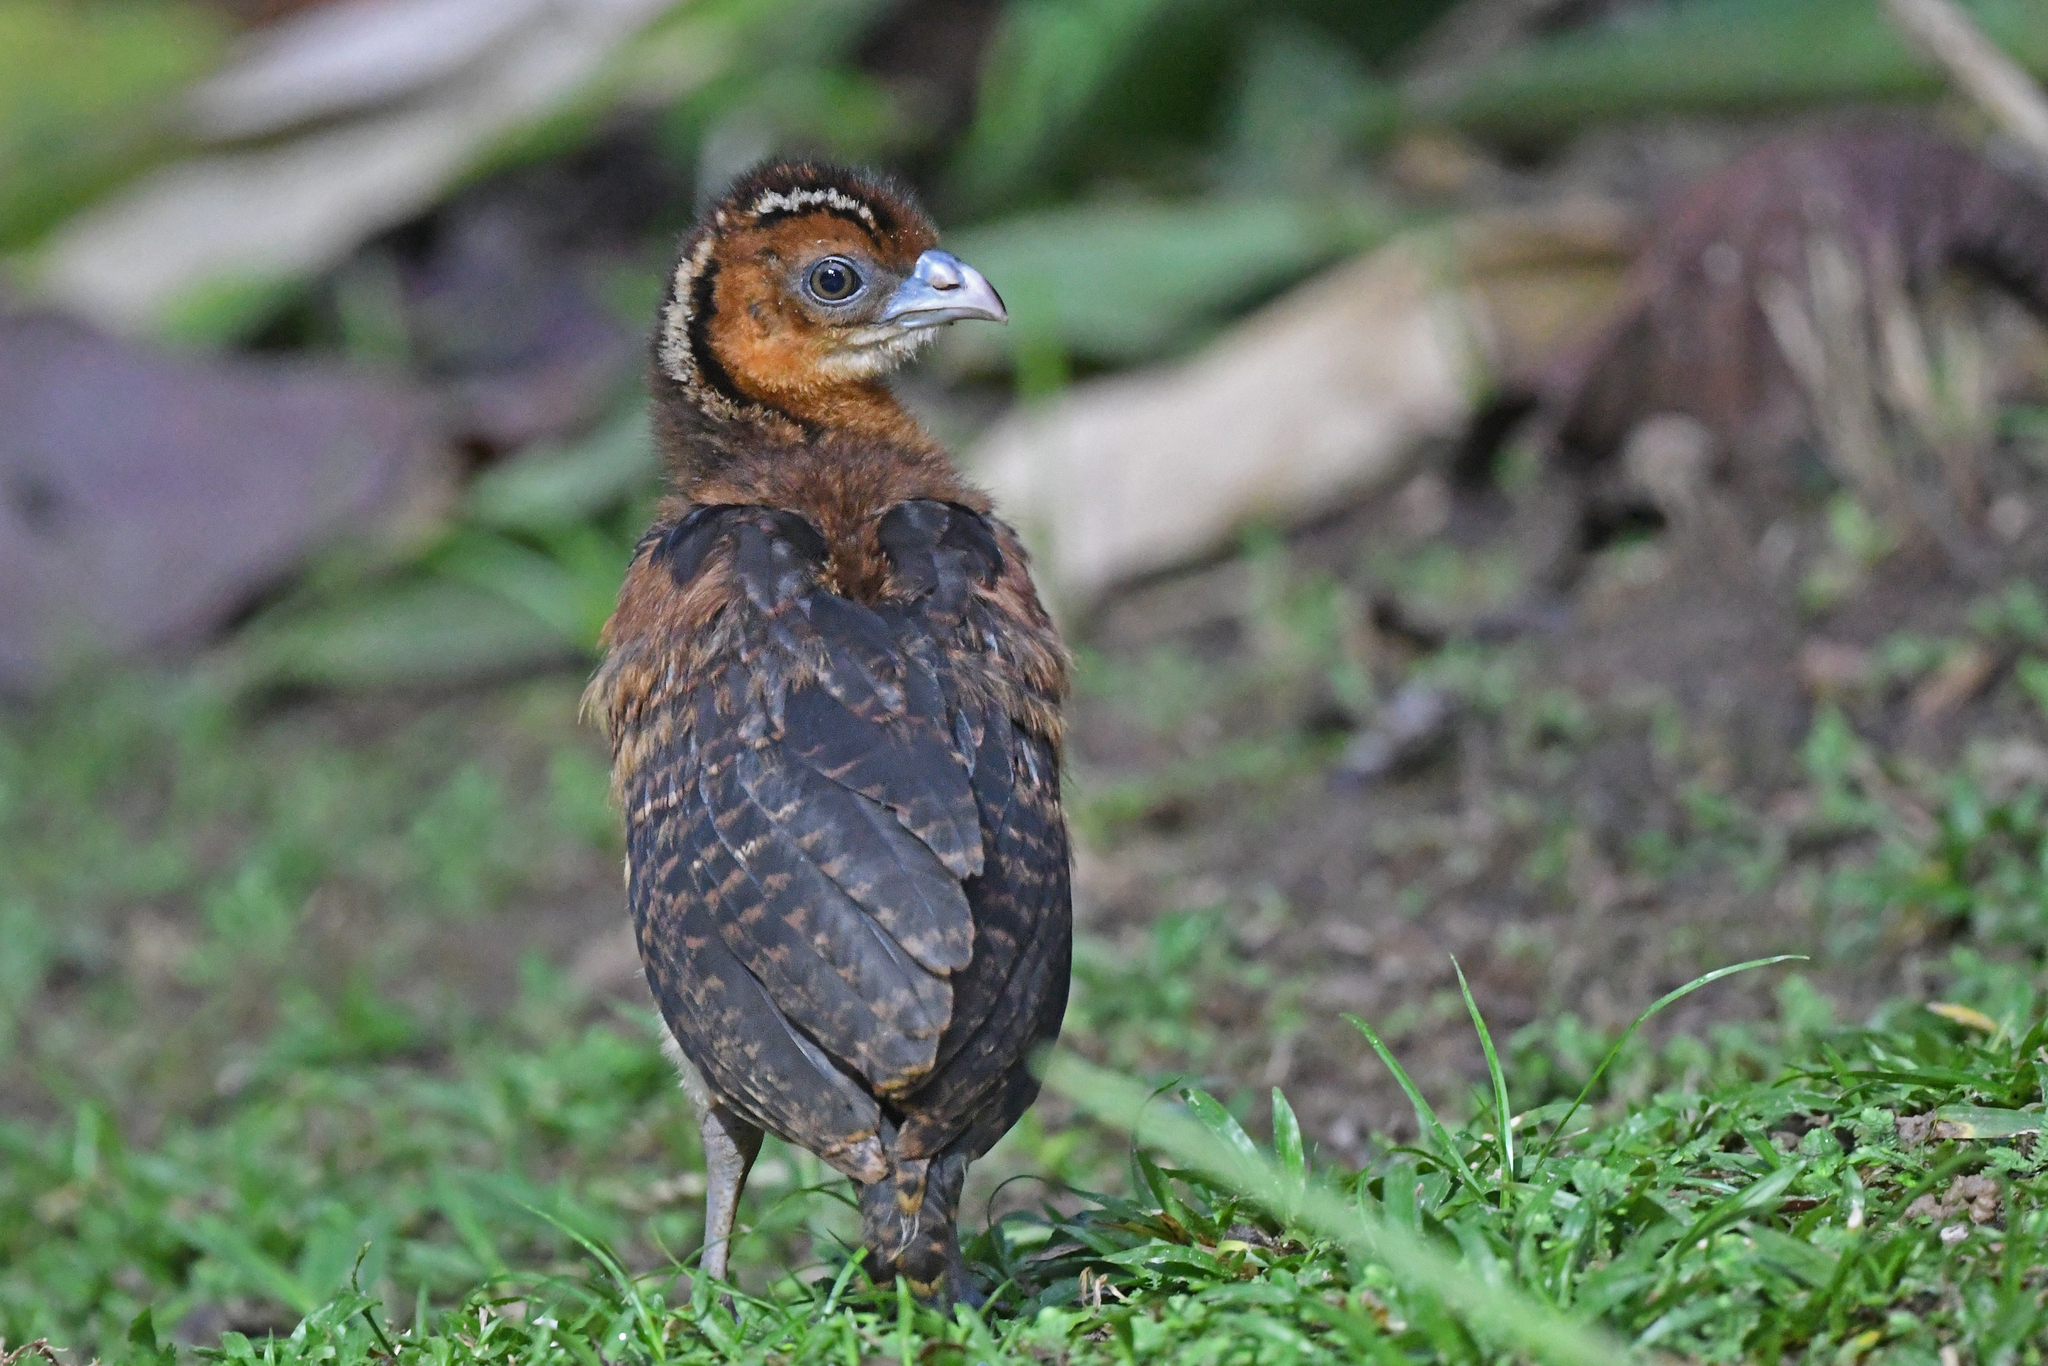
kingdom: Animalia
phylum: Chordata
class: Aves
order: Galliformes
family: Cracidae
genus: Crax
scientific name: Crax alberti
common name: Blue-billed curassow
